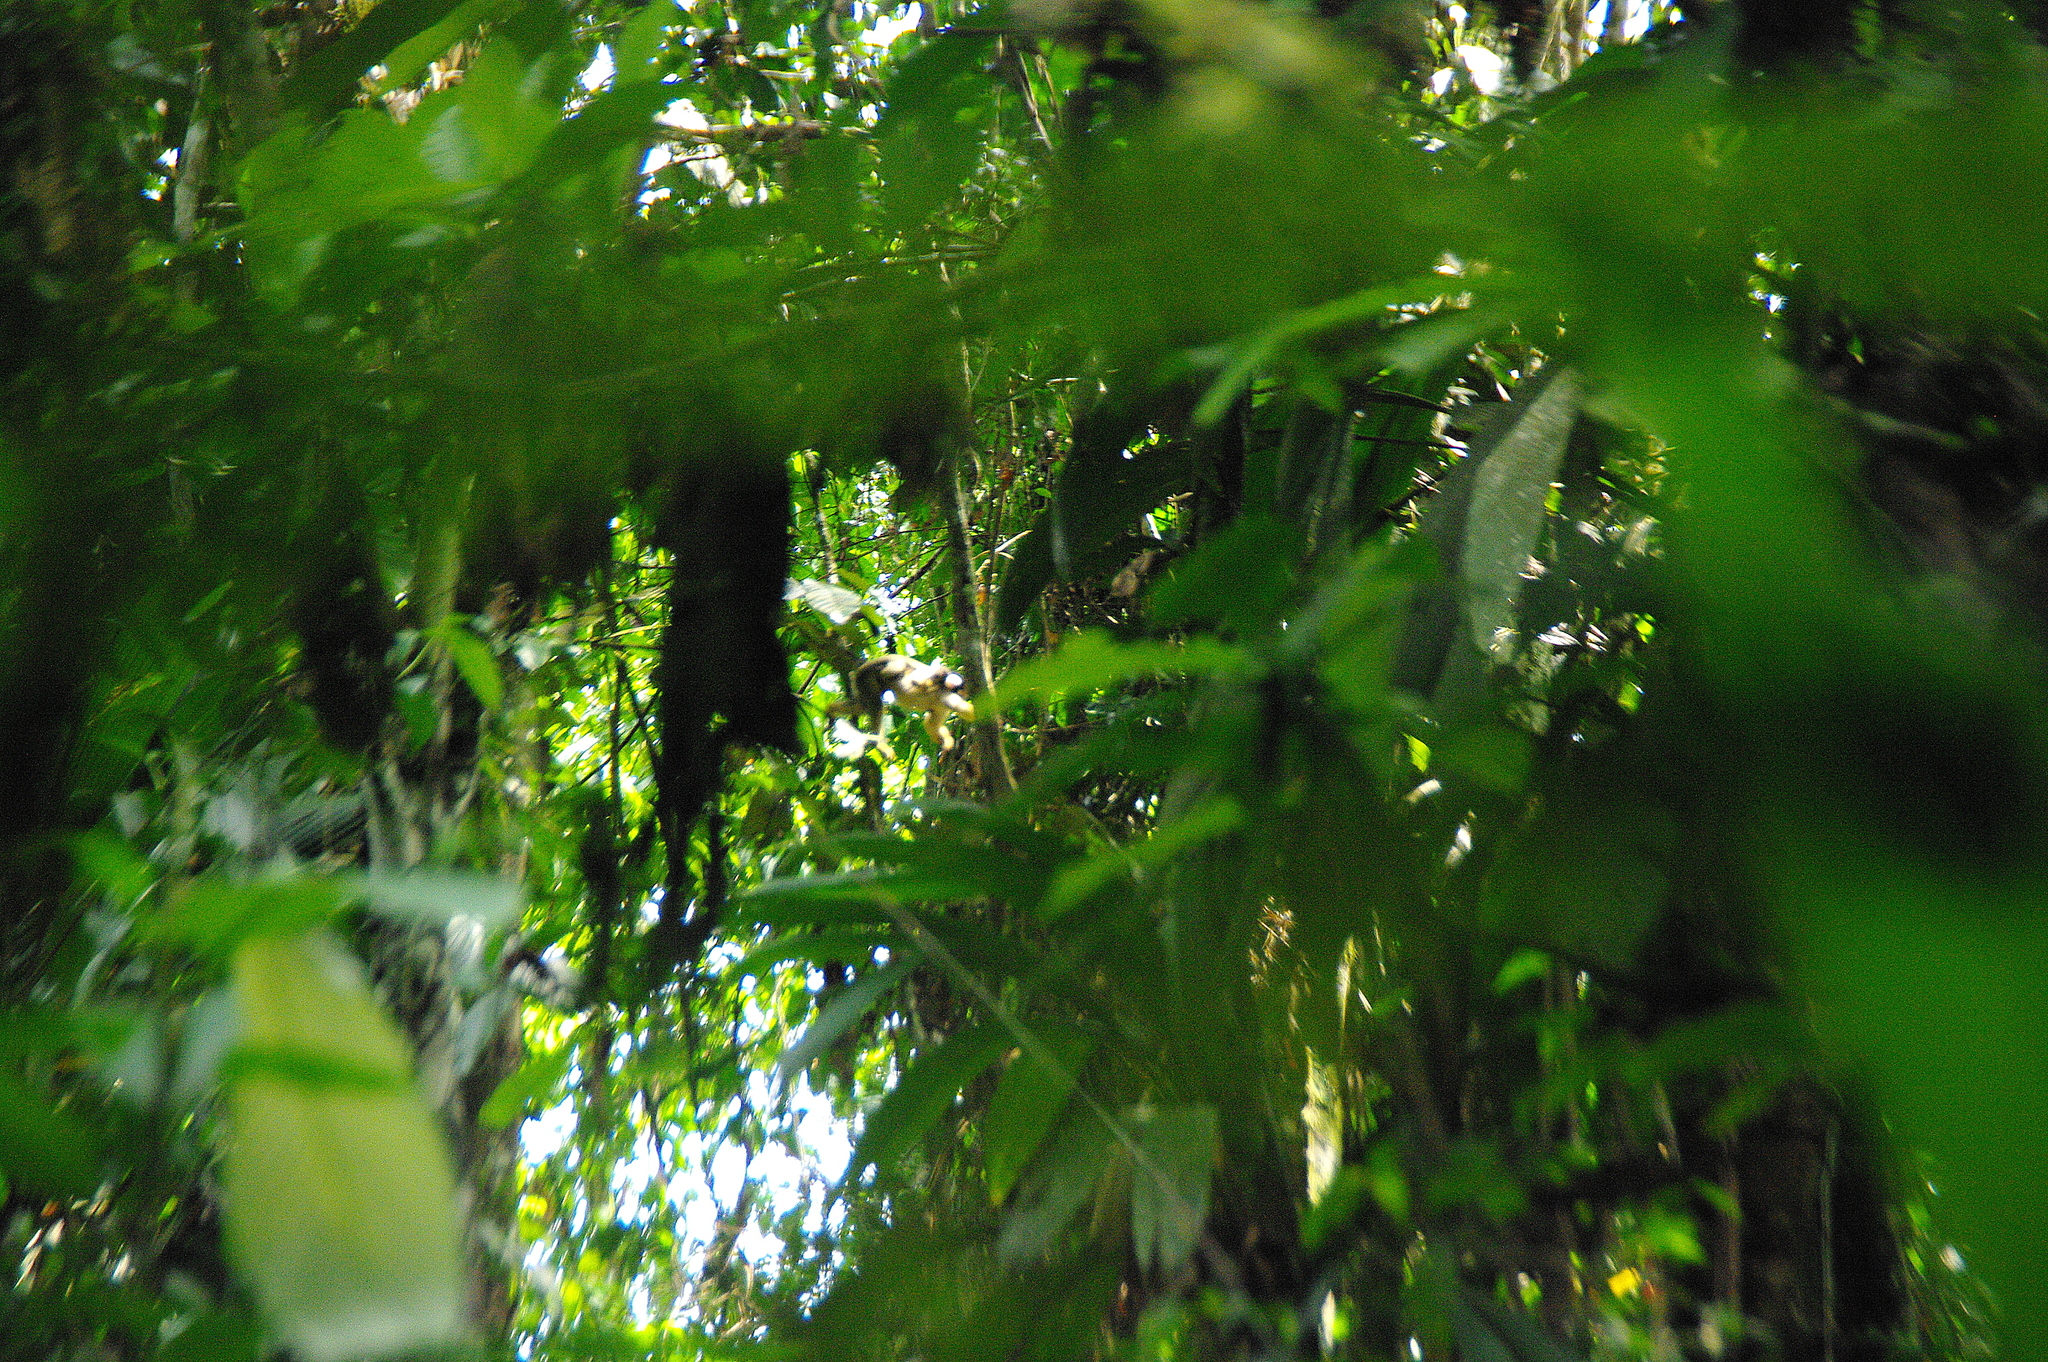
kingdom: Animalia
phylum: Chordata
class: Mammalia
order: Primates
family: Cebidae
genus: Saimiri
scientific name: Saimiri boliviensis
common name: Black-capped squirrel monkey
